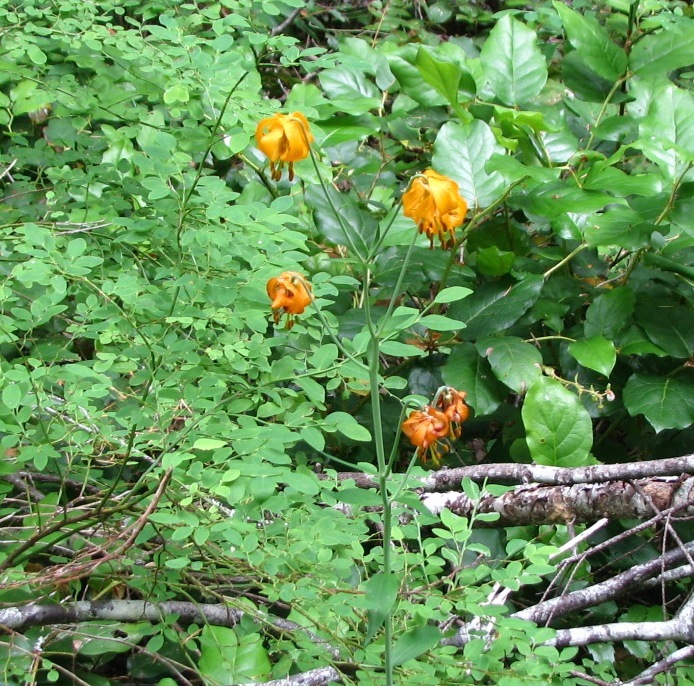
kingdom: Plantae
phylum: Tracheophyta
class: Liliopsida
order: Liliales
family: Liliaceae
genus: Lilium
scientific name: Lilium columbianum
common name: Columbia lily
